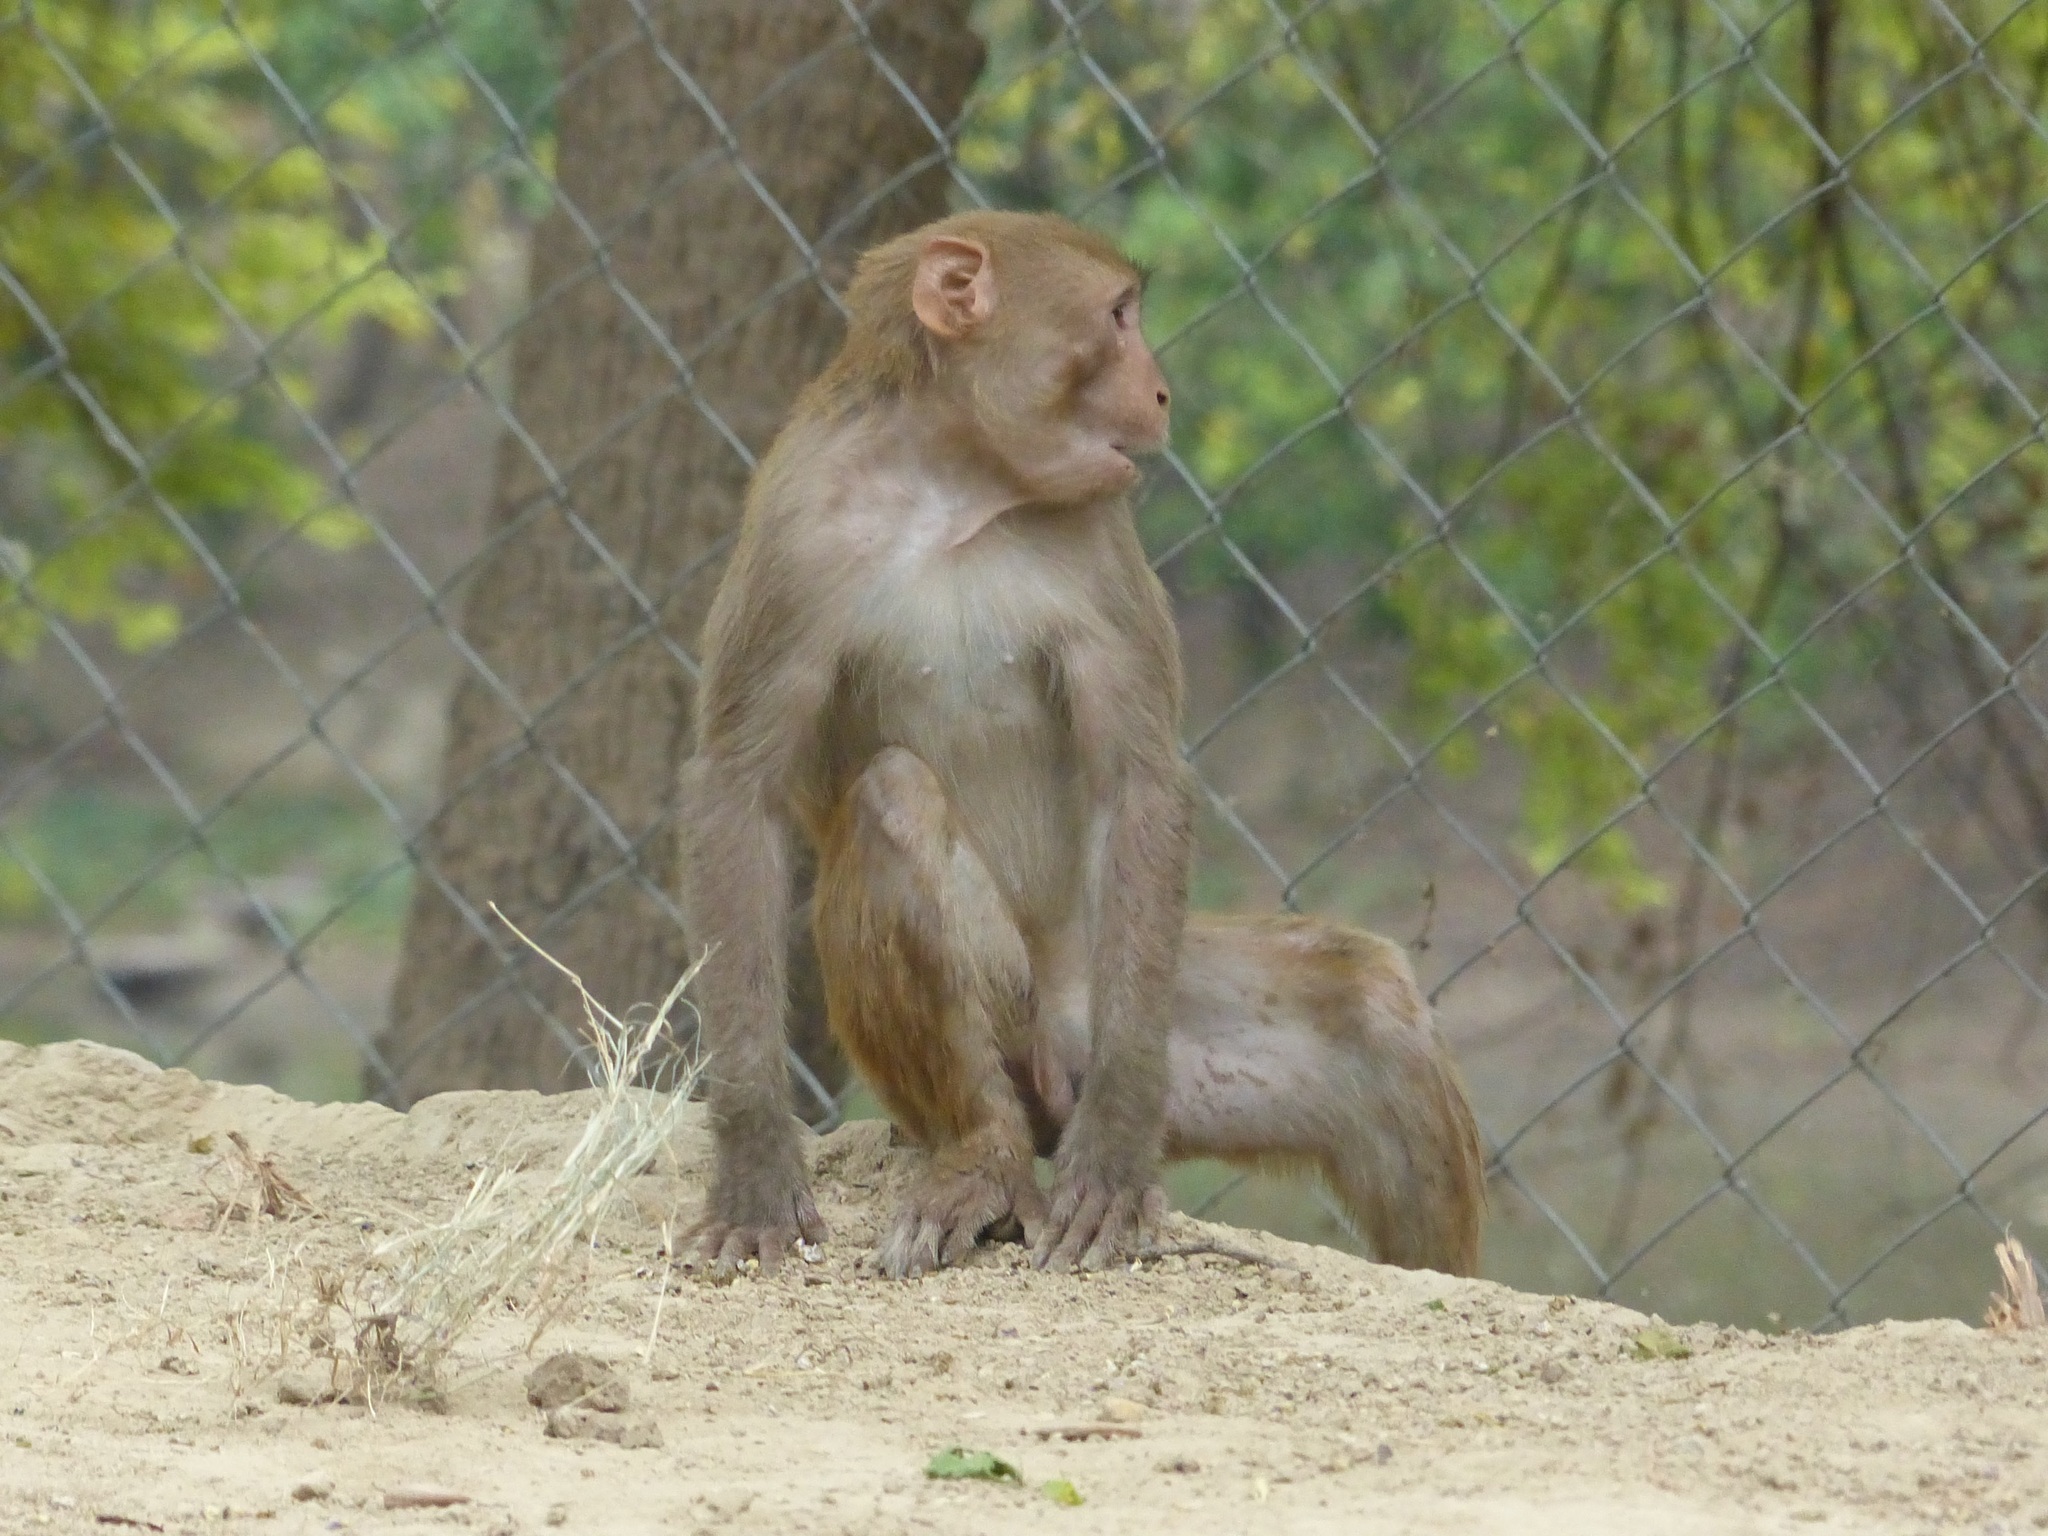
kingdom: Animalia
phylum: Chordata
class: Mammalia
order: Primates
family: Cercopithecidae
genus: Macaca
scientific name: Macaca mulatta
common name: Rhesus monkey
